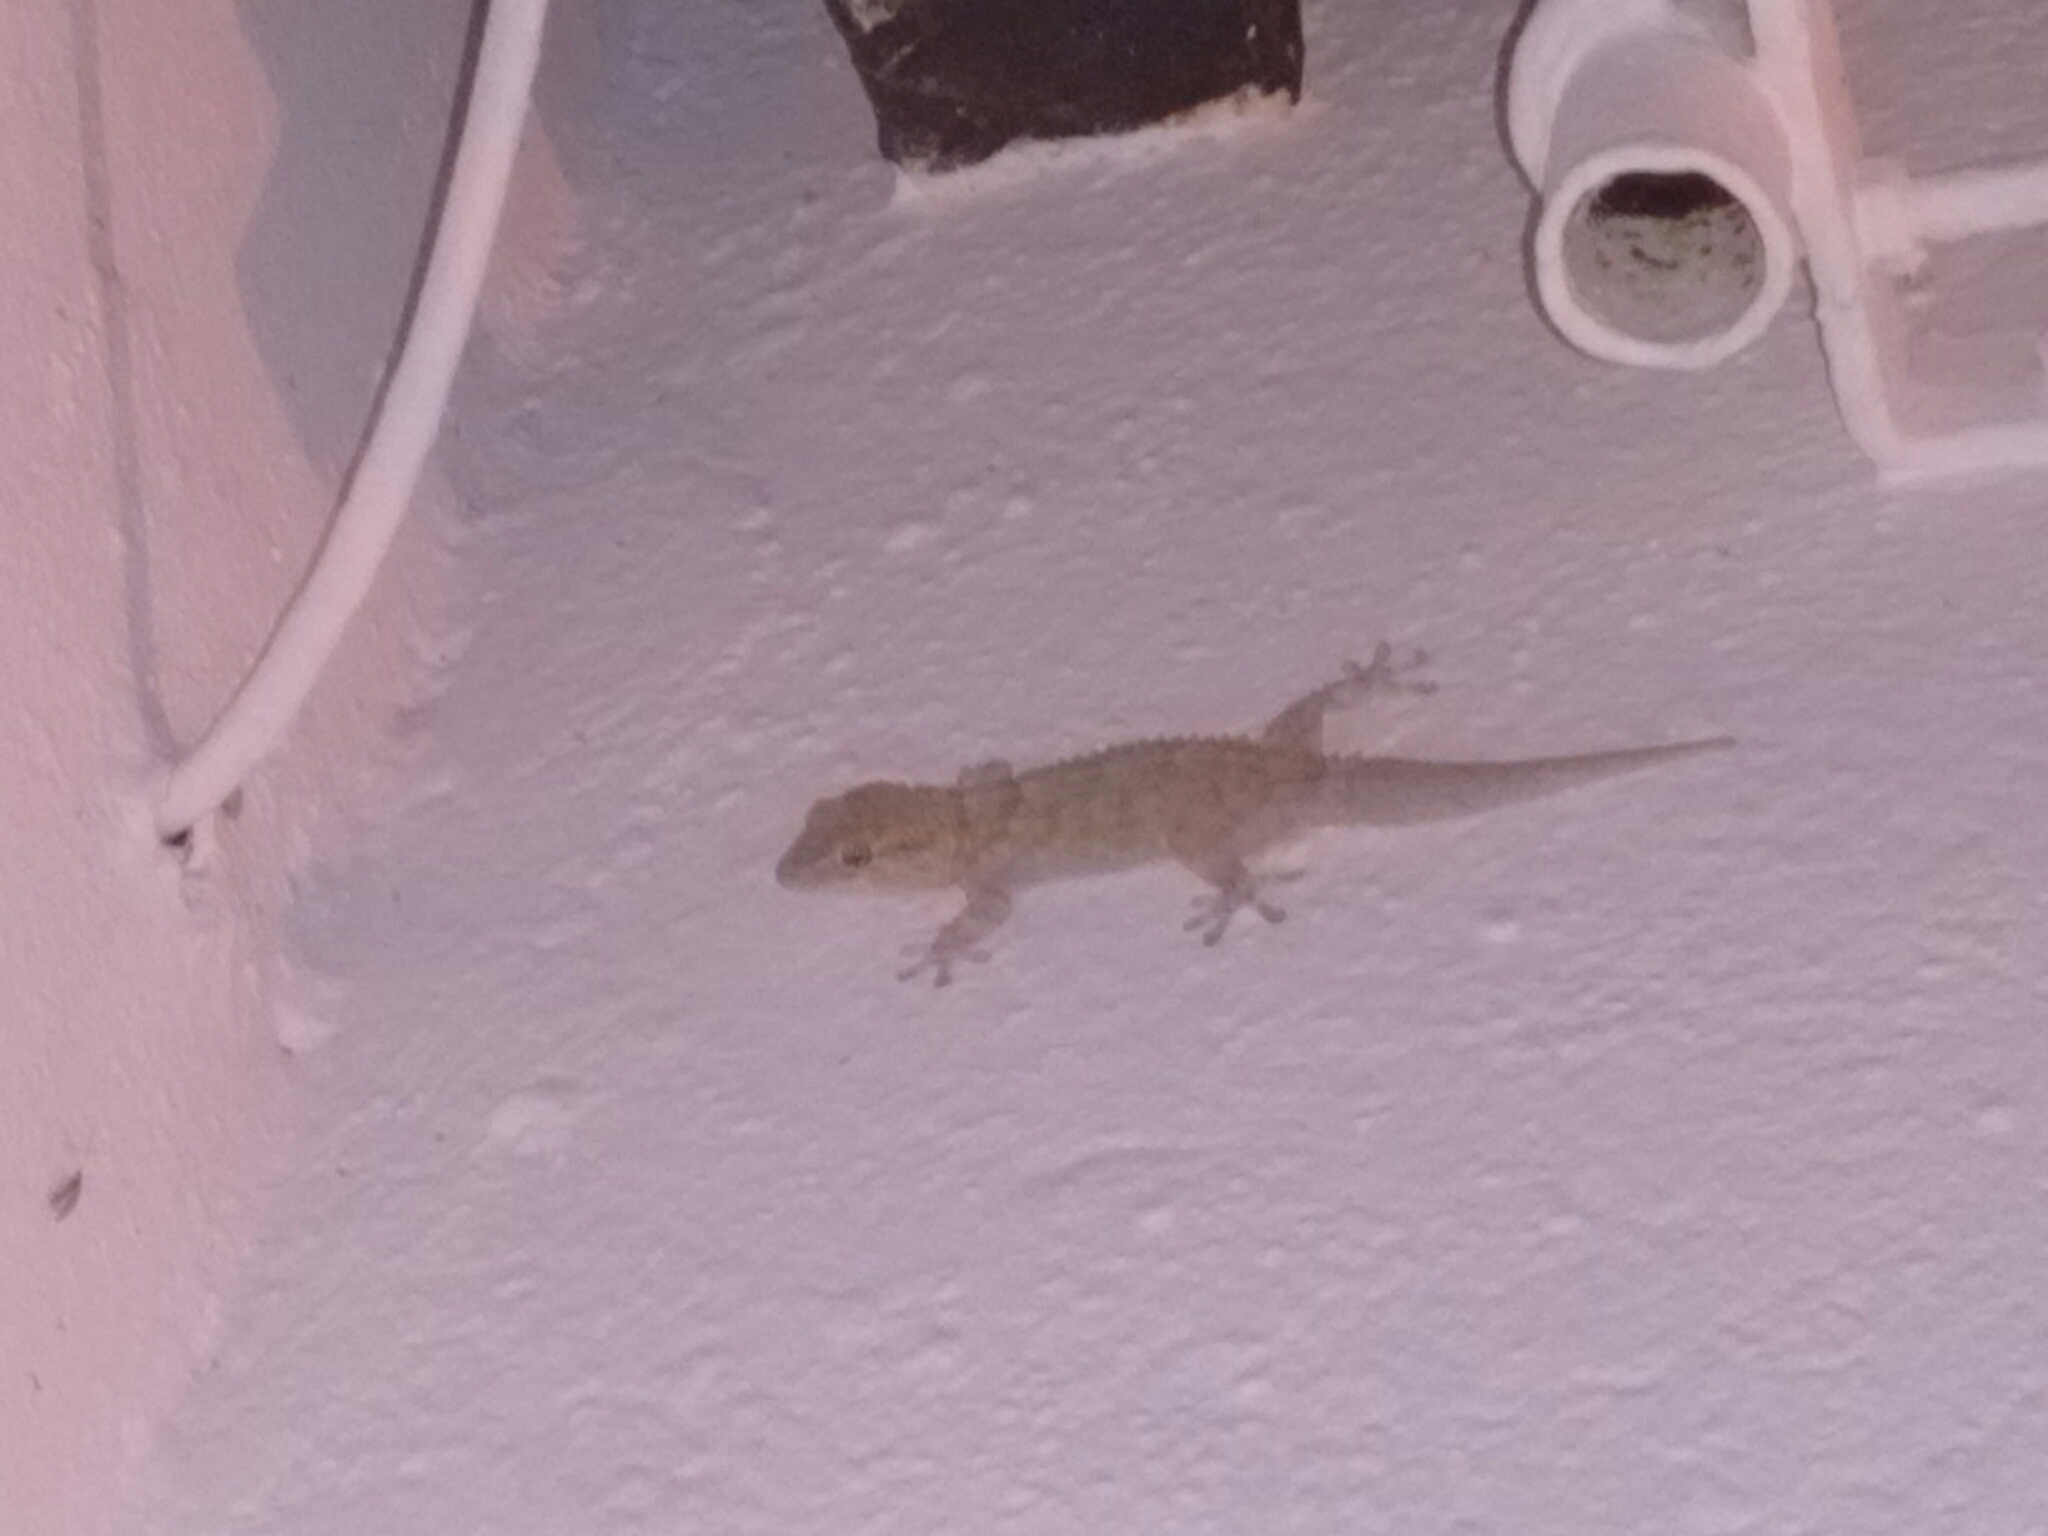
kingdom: Animalia
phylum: Chordata
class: Squamata
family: Phyllodactylidae
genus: Tarentola
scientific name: Tarentola mauritanica
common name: Moorish gecko
